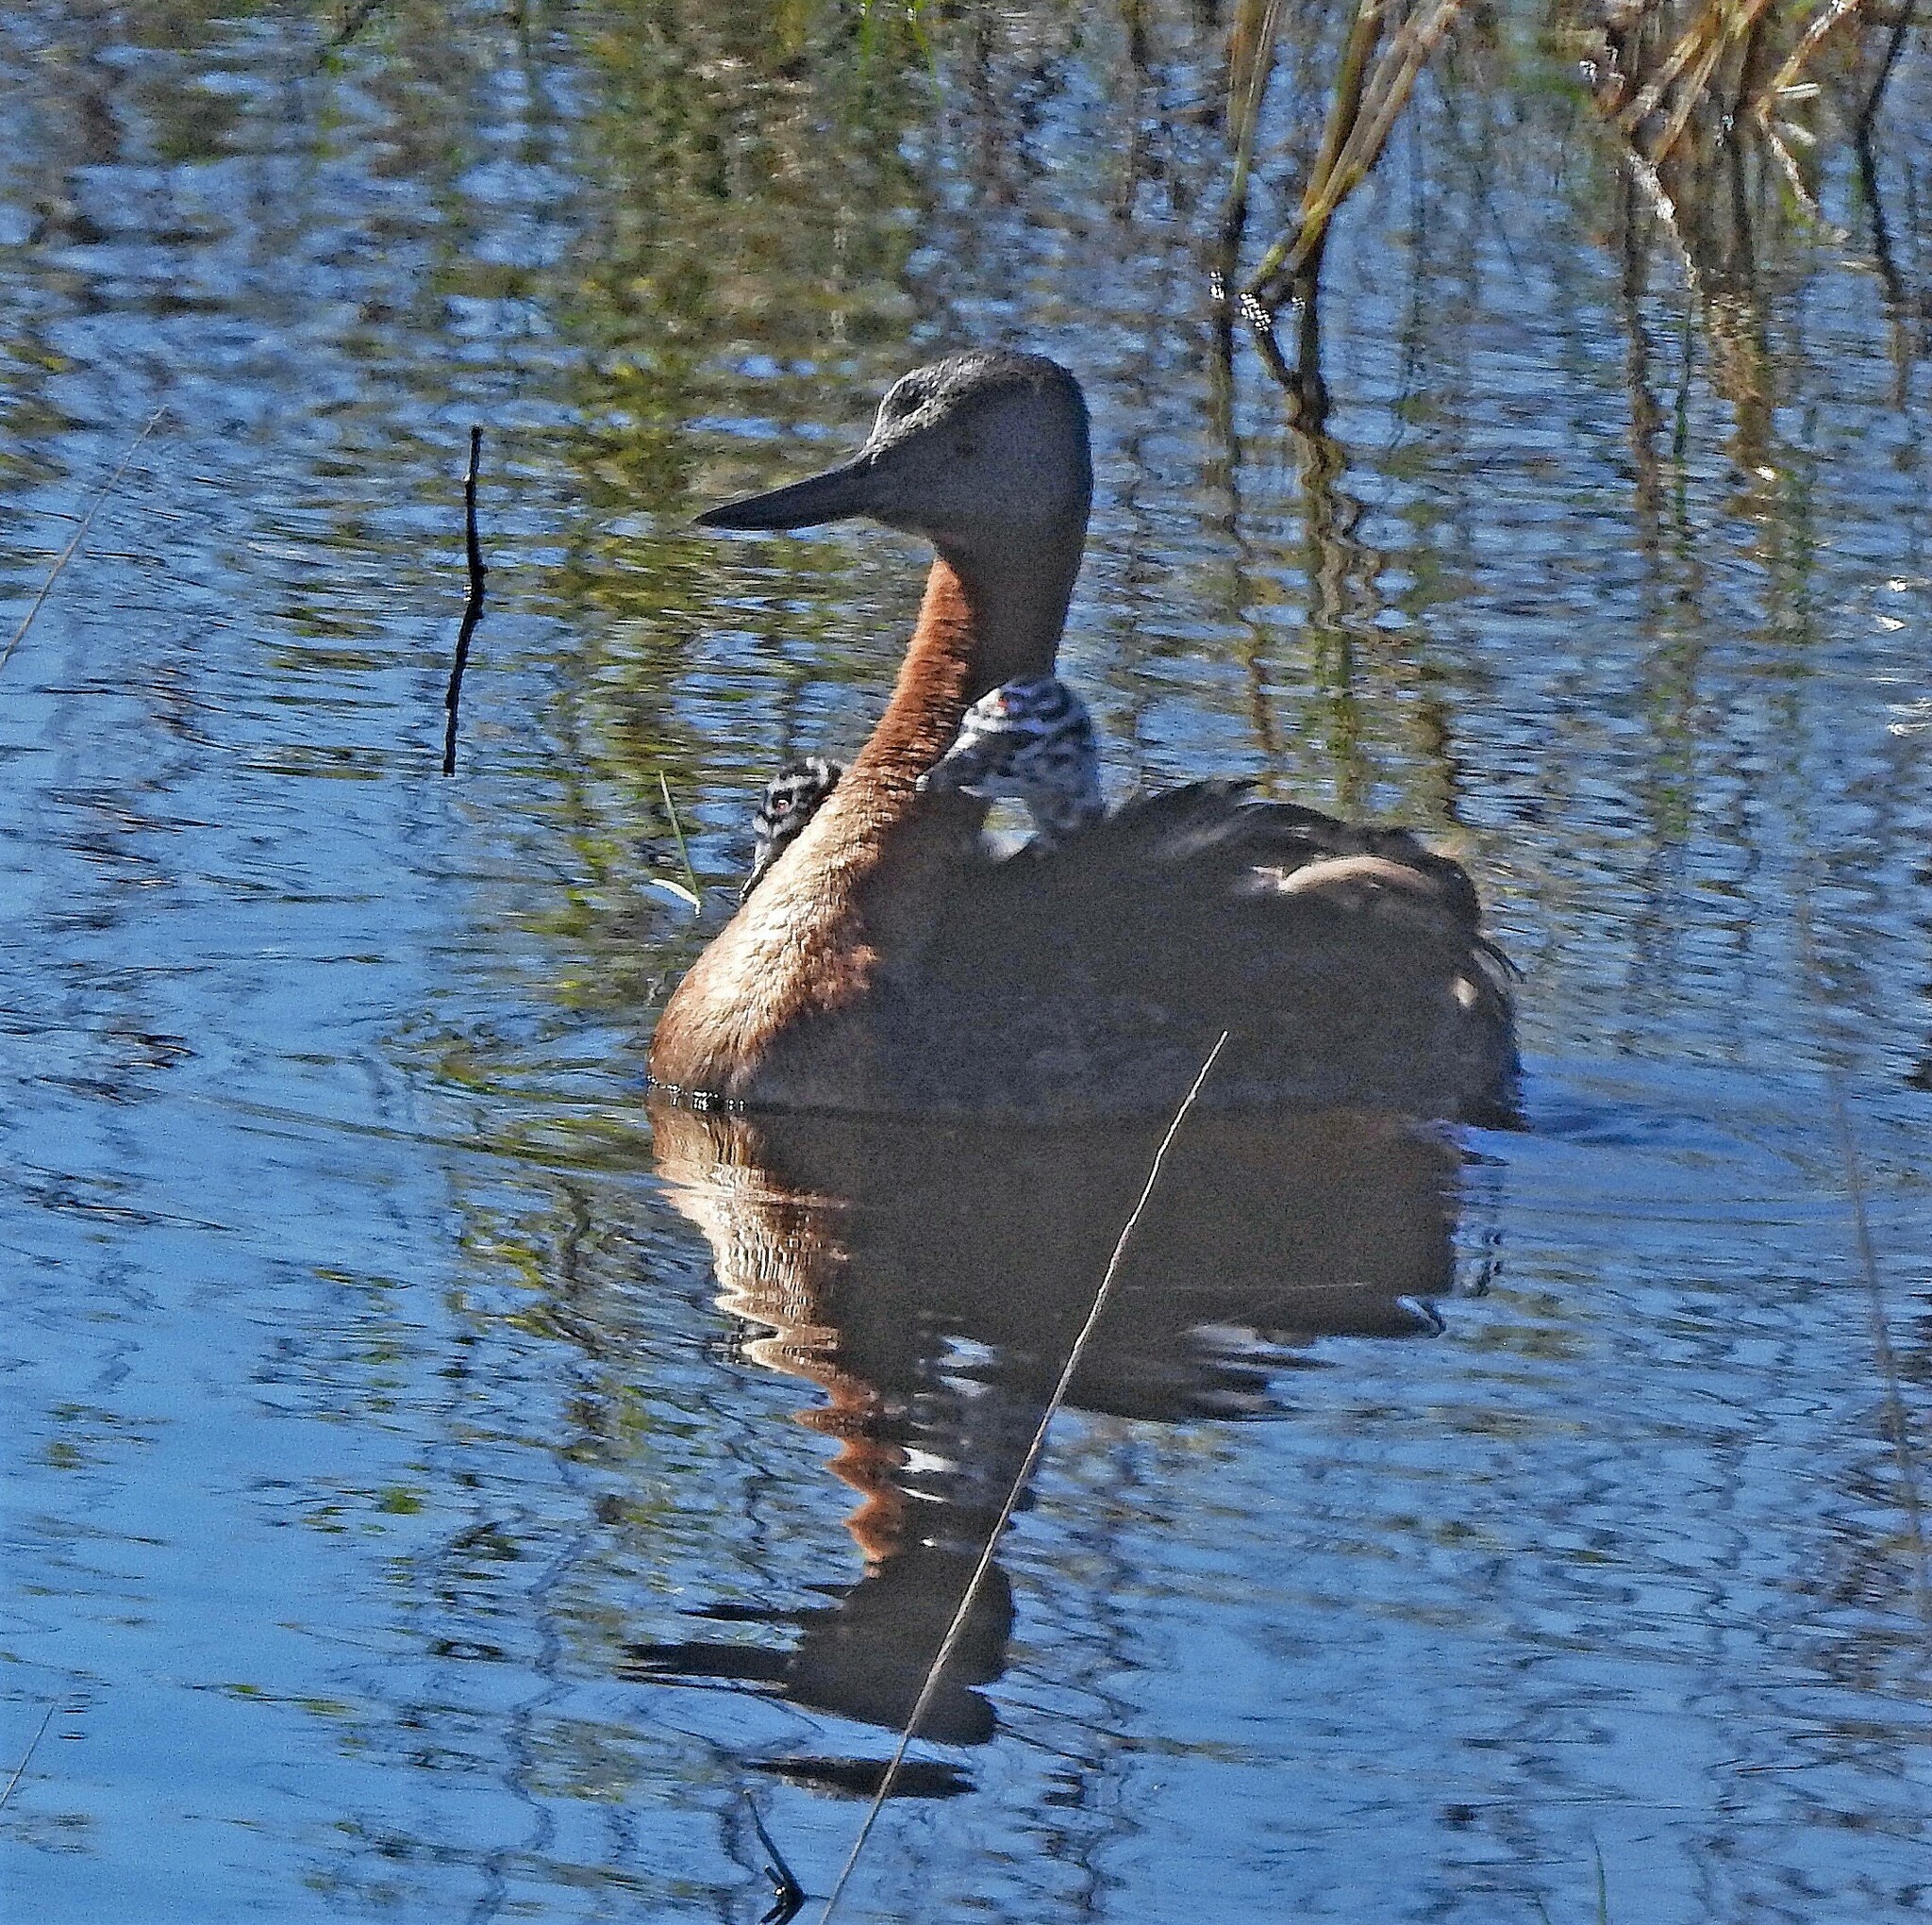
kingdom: Animalia
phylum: Chordata
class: Aves
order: Podicipediformes
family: Podicipedidae
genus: Podiceps
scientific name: Podiceps major
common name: Great grebe
